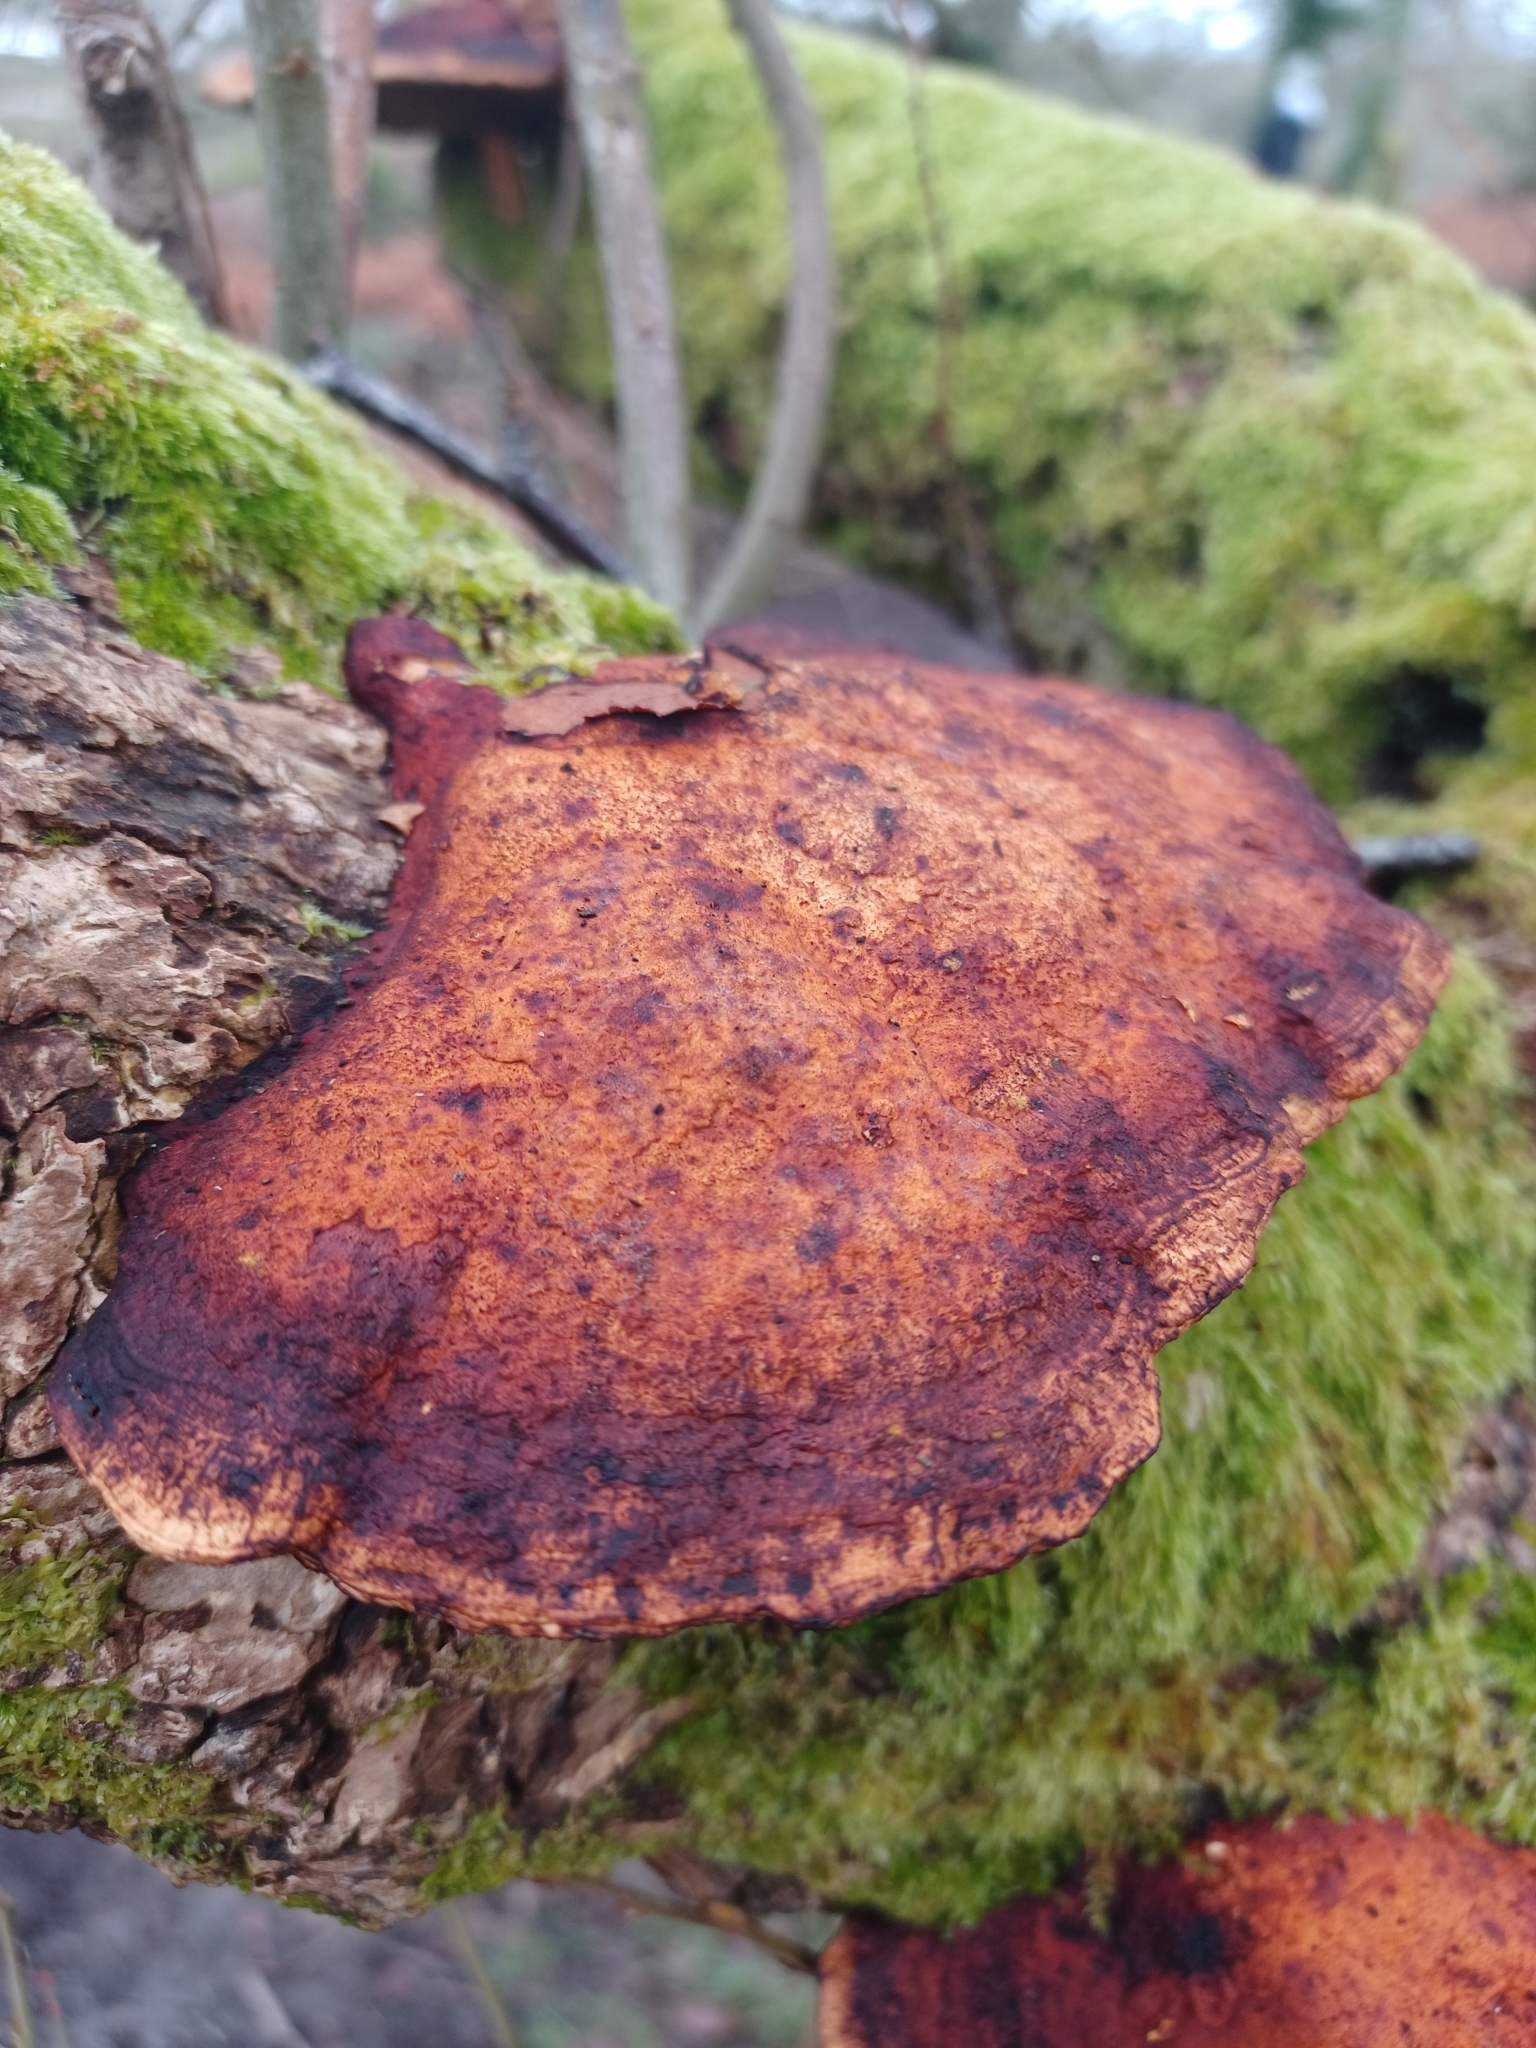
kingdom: Fungi
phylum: Basidiomycota
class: Agaricomycetes
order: Polyporales
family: Polyporaceae
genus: Daedaleopsis
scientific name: Daedaleopsis confragosa
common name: Blushing bracket
